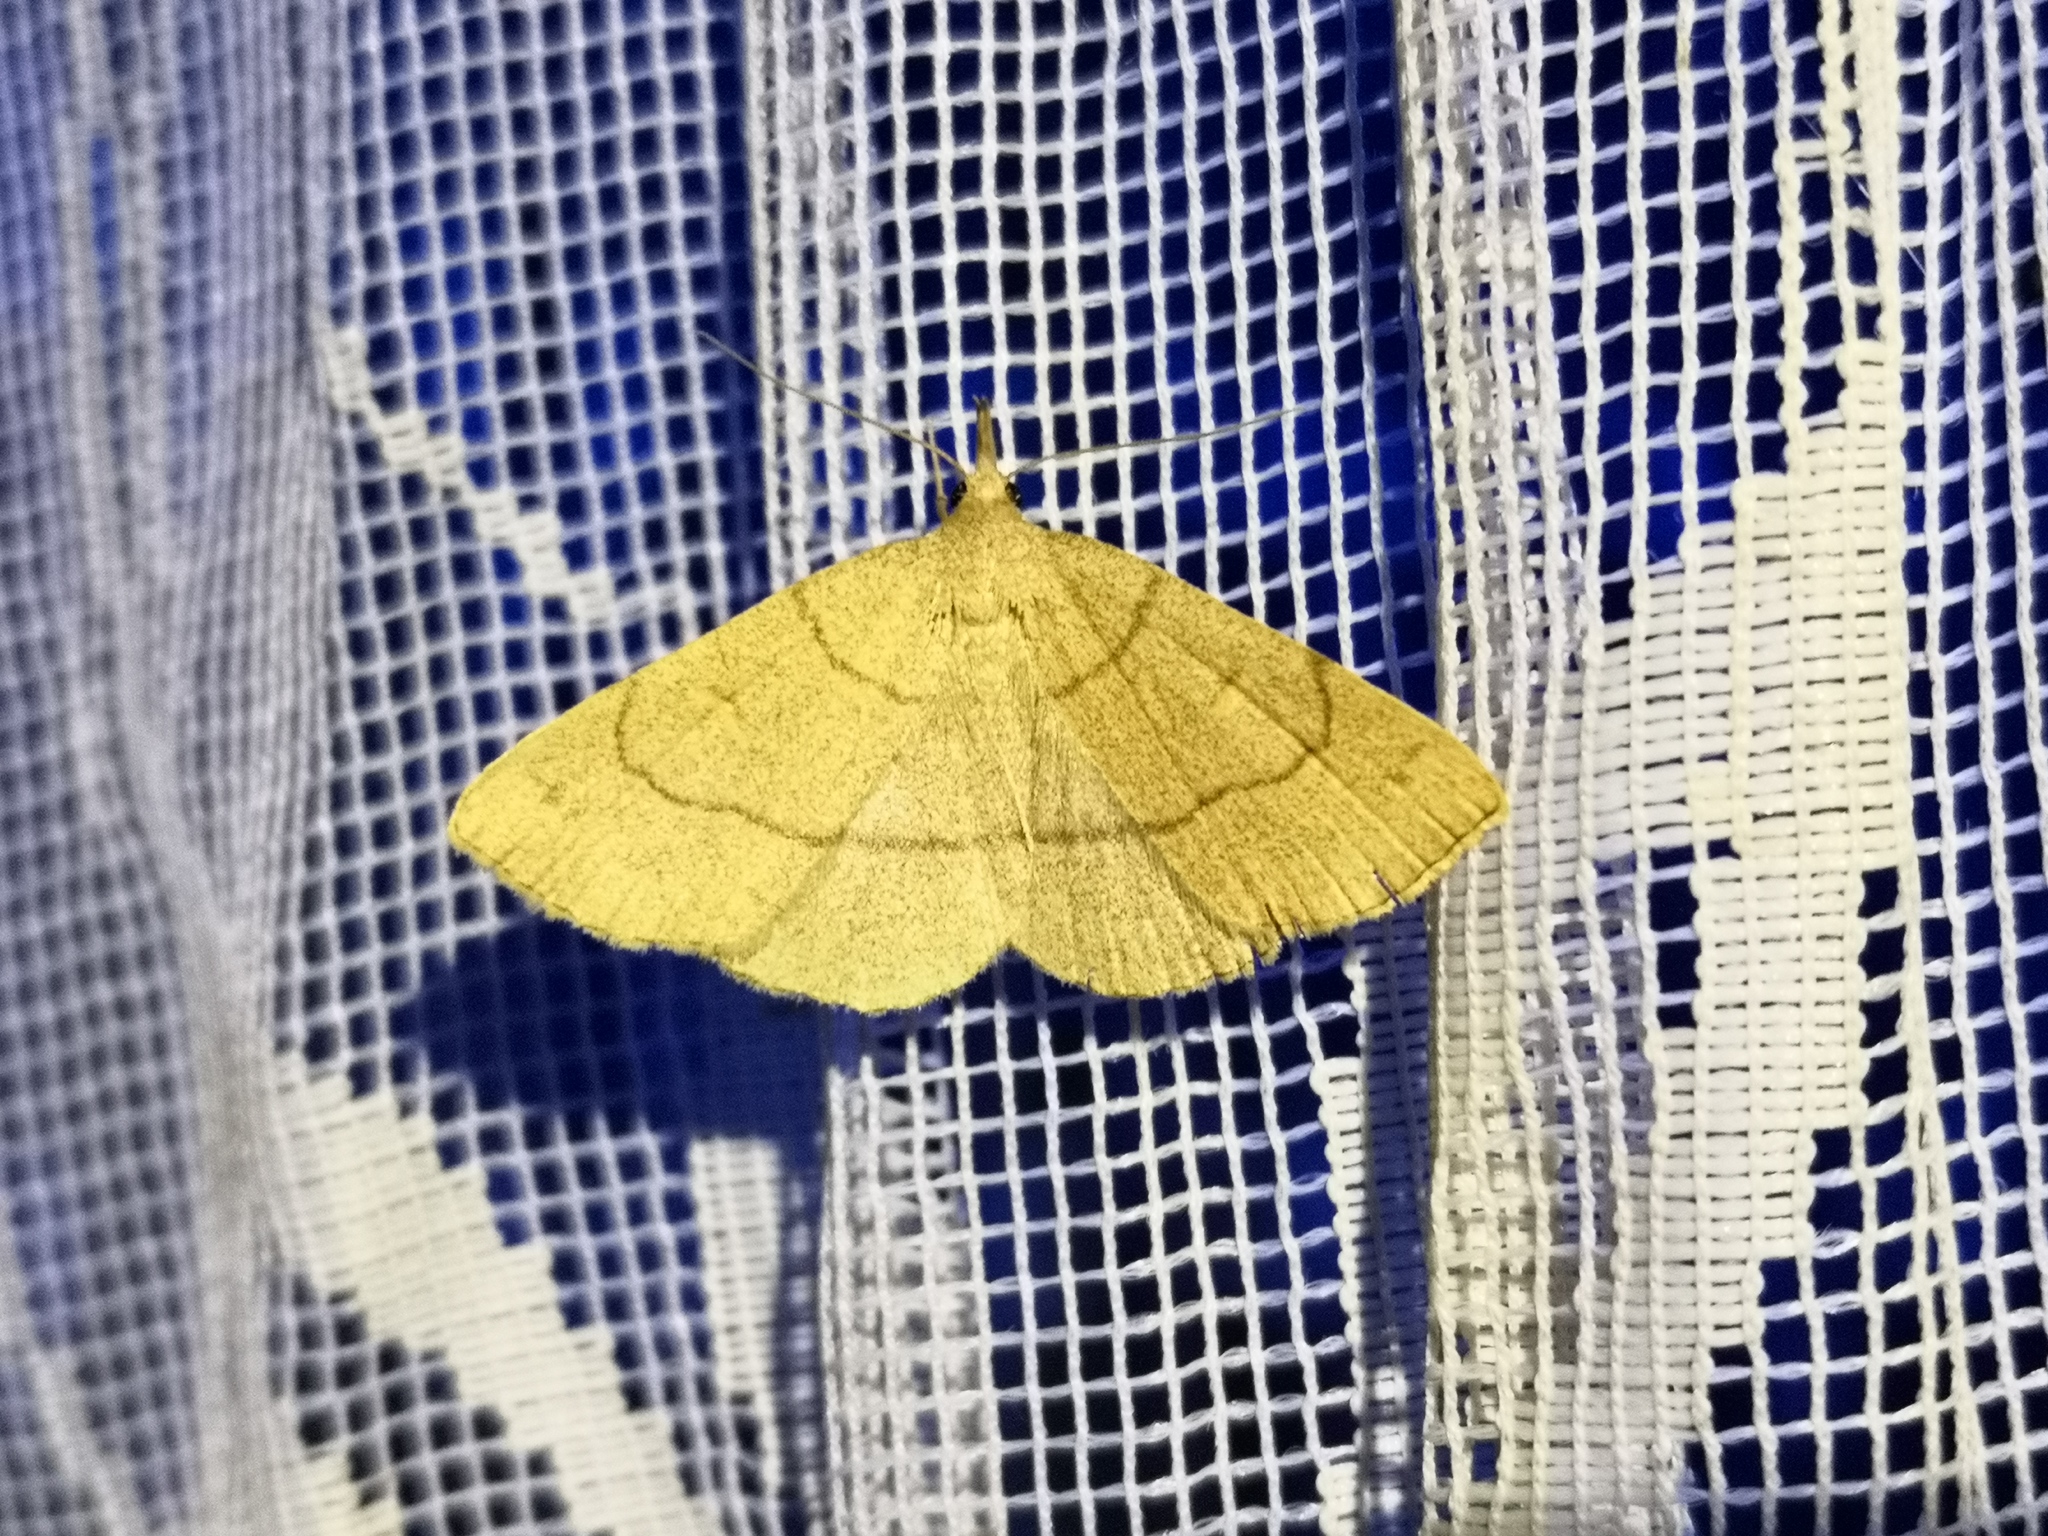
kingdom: Animalia
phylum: Arthropoda
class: Insecta
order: Lepidoptera
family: Erebidae
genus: Paracolax
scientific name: Paracolax tristalis
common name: Clay fan-foot
